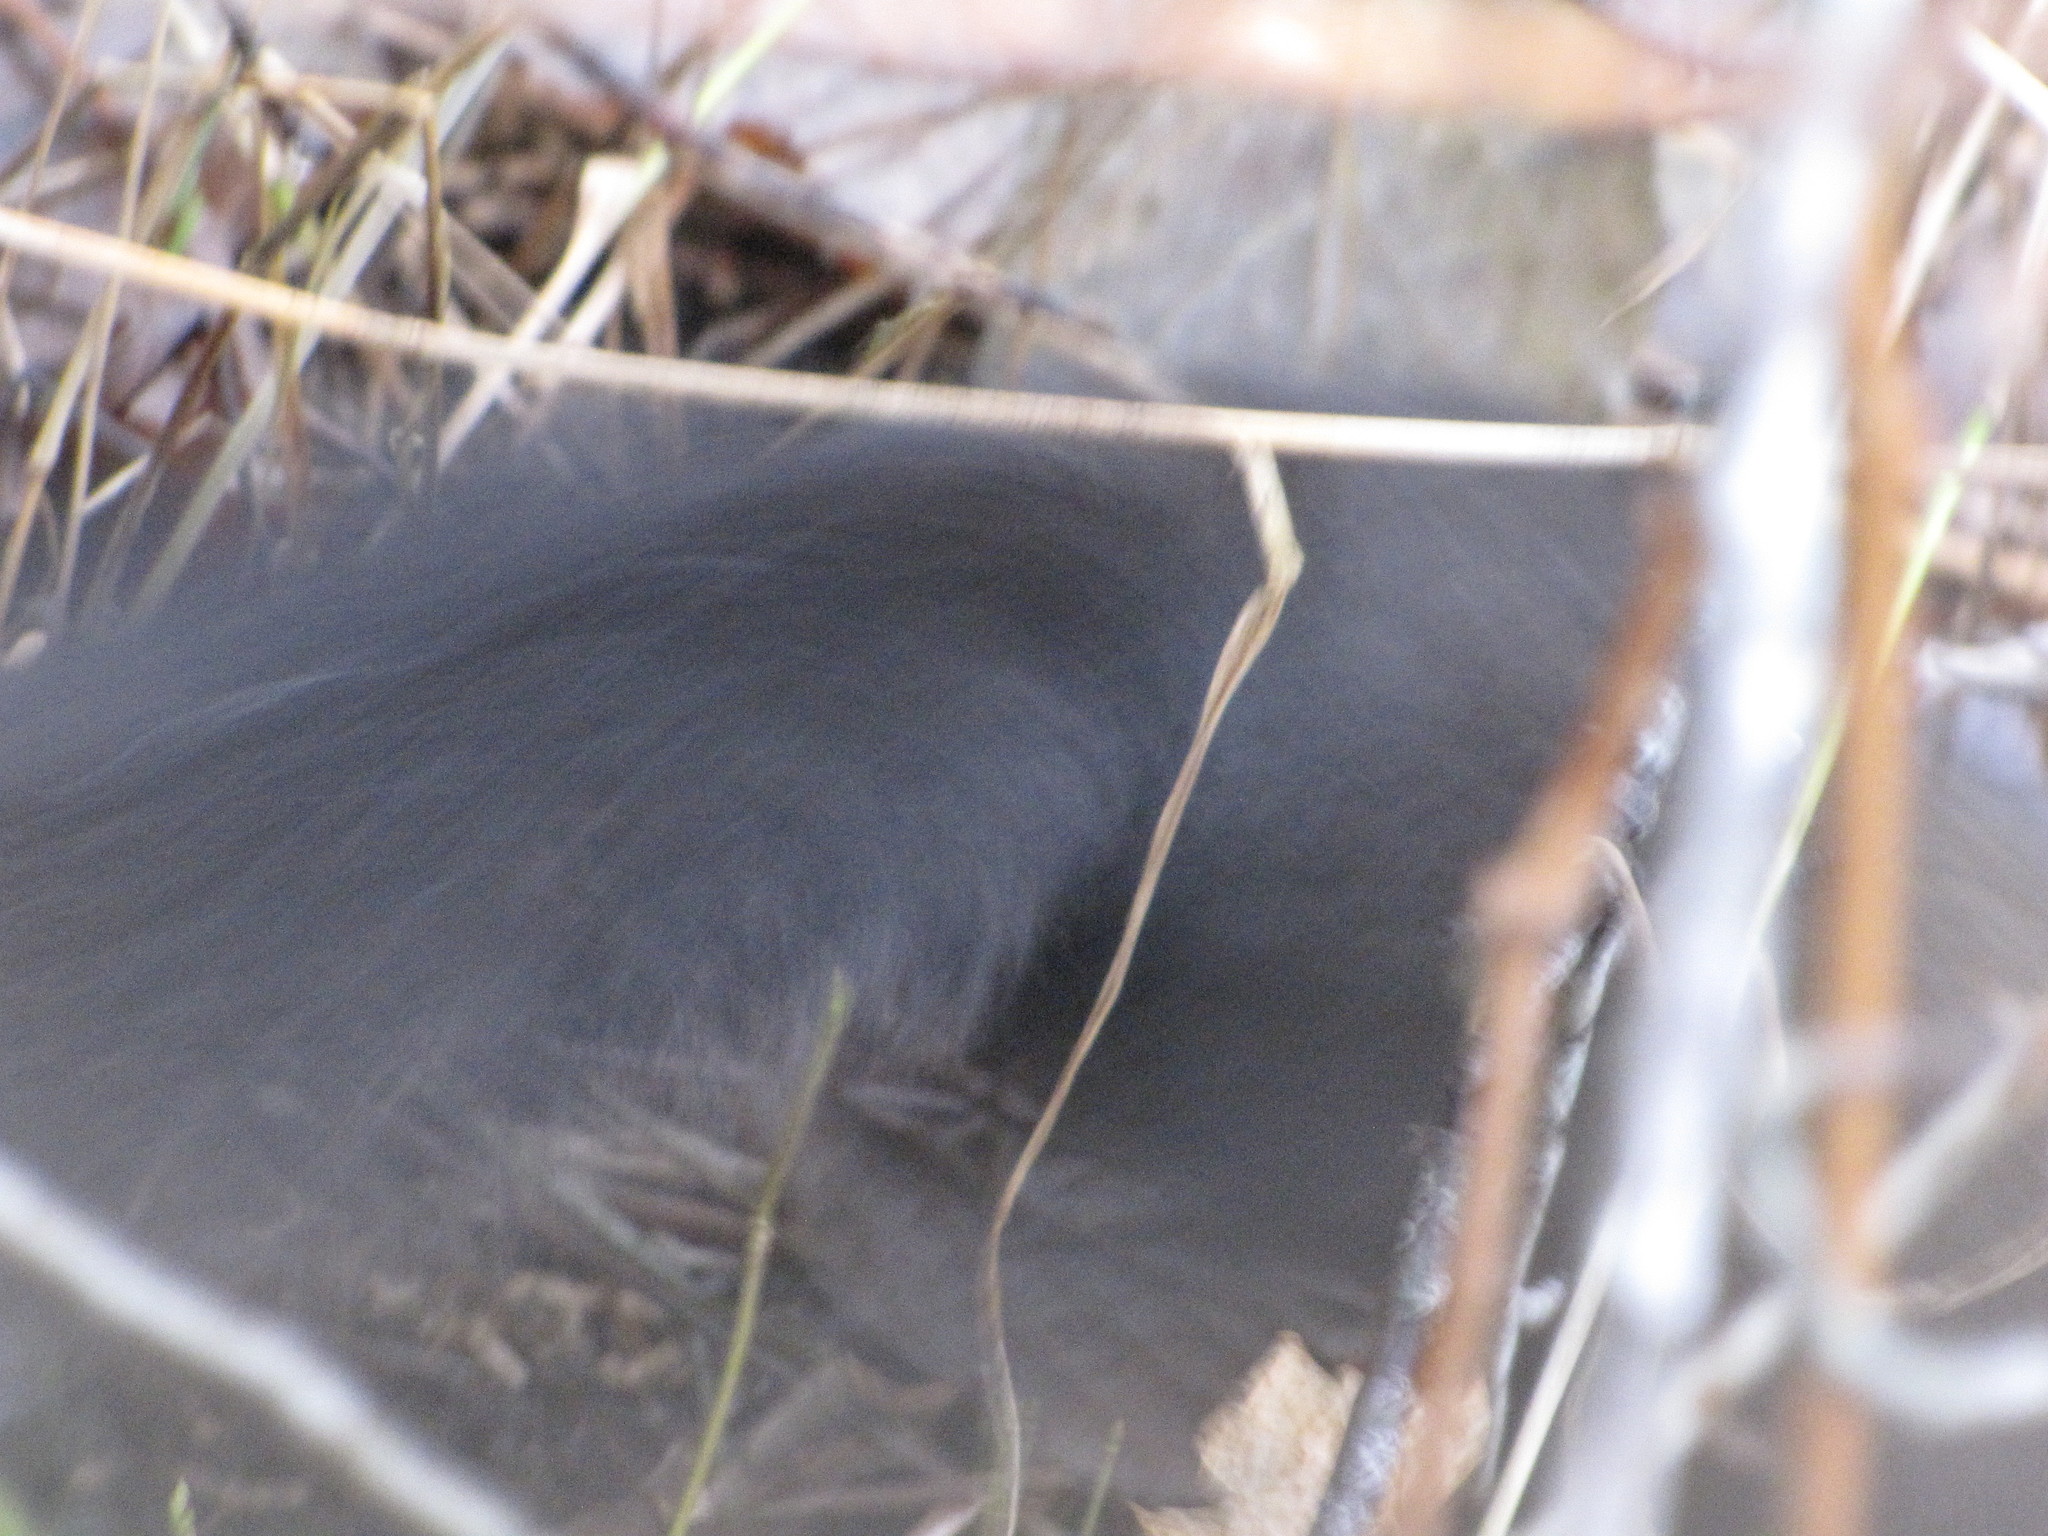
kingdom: Animalia
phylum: Chordata
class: Mammalia
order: Rodentia
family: Sciuridae
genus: Sciurus
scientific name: Sciurus carolinensis
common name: Eastern gray squirrel
